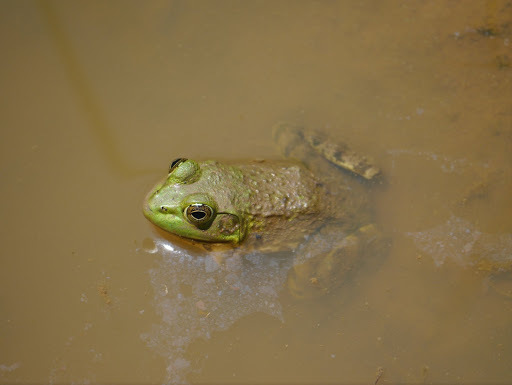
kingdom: Animalia
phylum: Chordata
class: Amphibia
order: Anura
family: Ranidae
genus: Lithobates
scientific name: Lithobates catesbeianus
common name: American bullfrog
